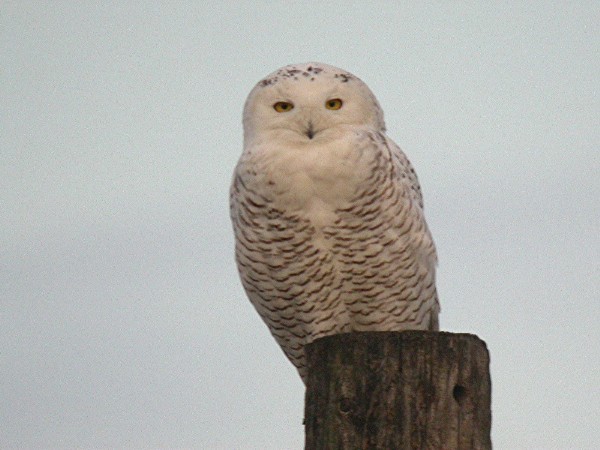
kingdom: Animalia
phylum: Chordata
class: Aves
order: Strigiformes
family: Strigidae
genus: Bubo
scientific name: Bubo scandiacus
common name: Snowy owl
